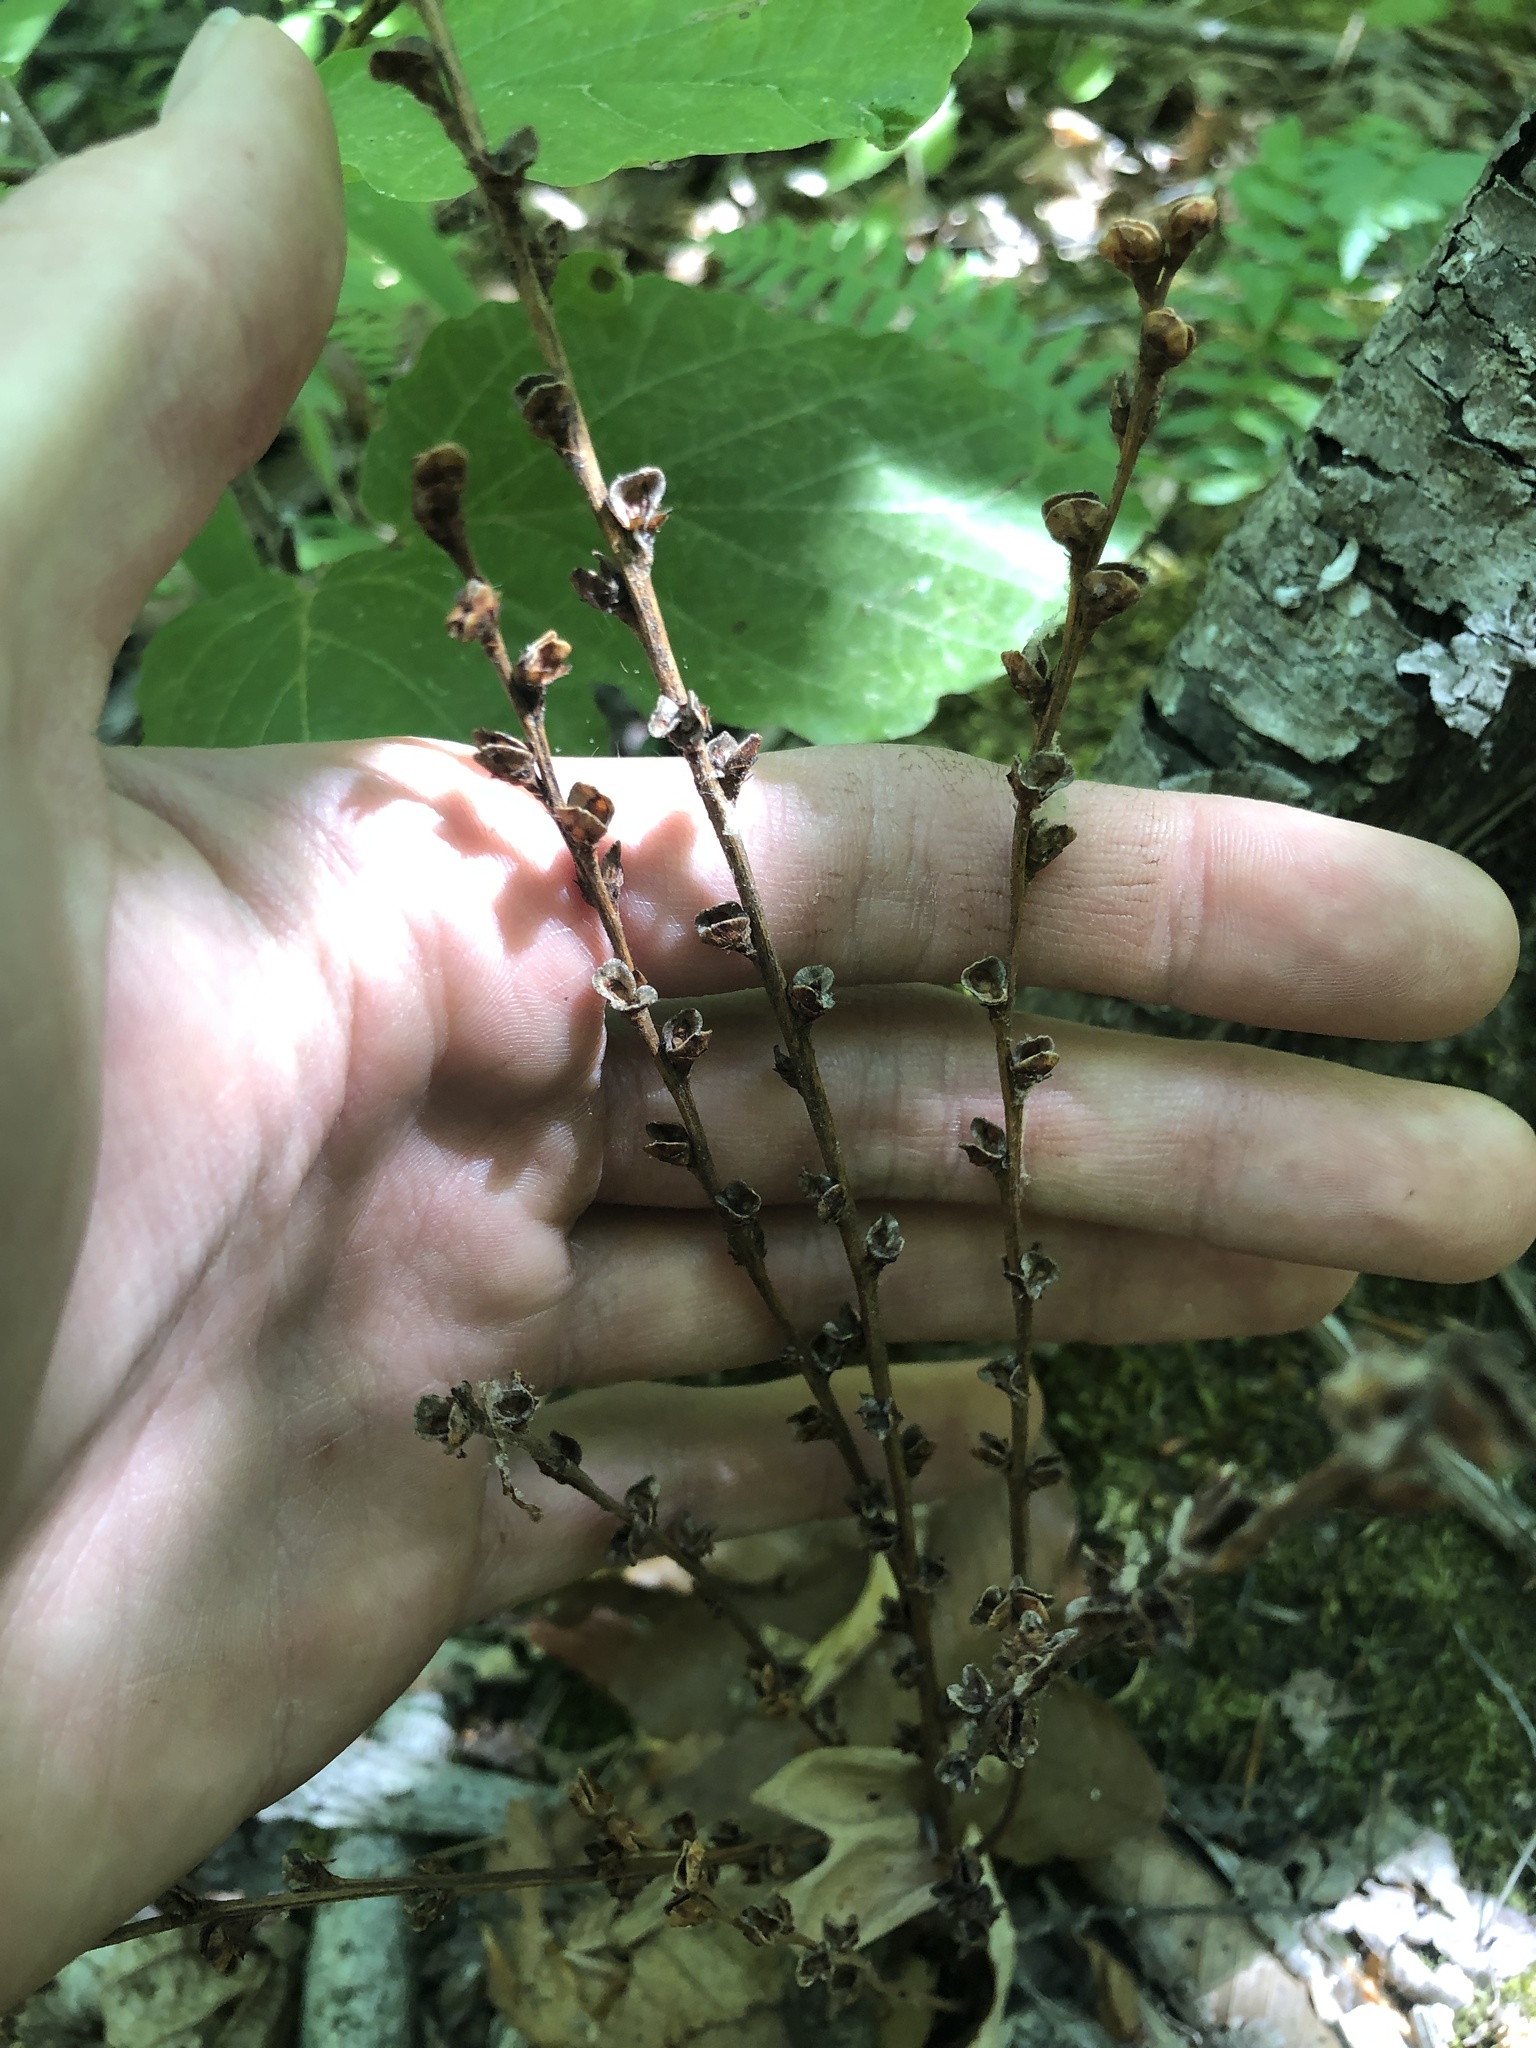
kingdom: Plantae
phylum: Tracheophyta
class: Magnoliopsida
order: Lamiales
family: Orobanchaceae
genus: Epifagus
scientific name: Epifagus virginiana
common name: Beechdrops
